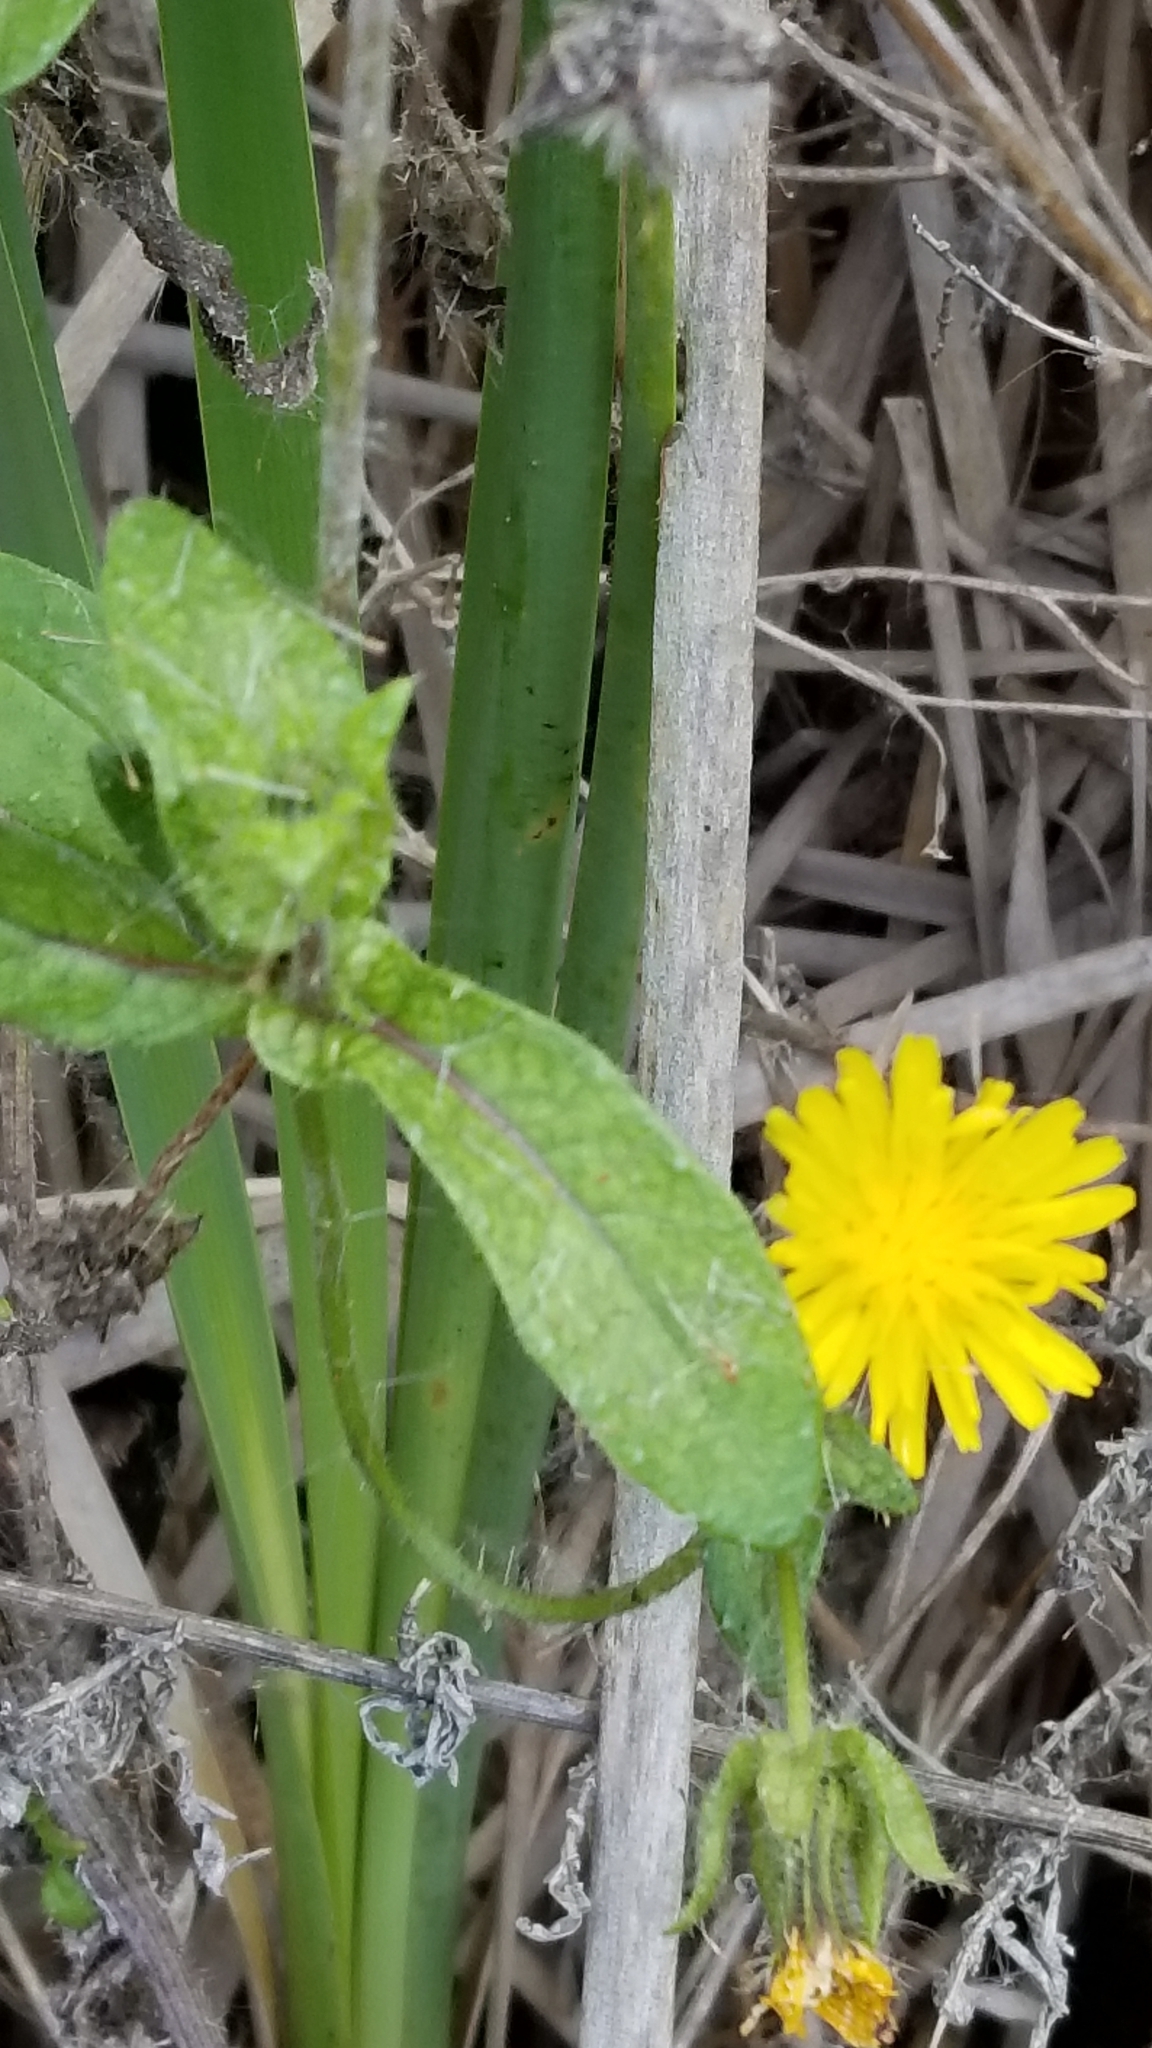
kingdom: Plantae
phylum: Tracheophyta
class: Magnoliopsida
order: Asterales
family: Asteraceae
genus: Helminthotheca
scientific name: Helminthotheca echioides
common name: Ox-tongue
